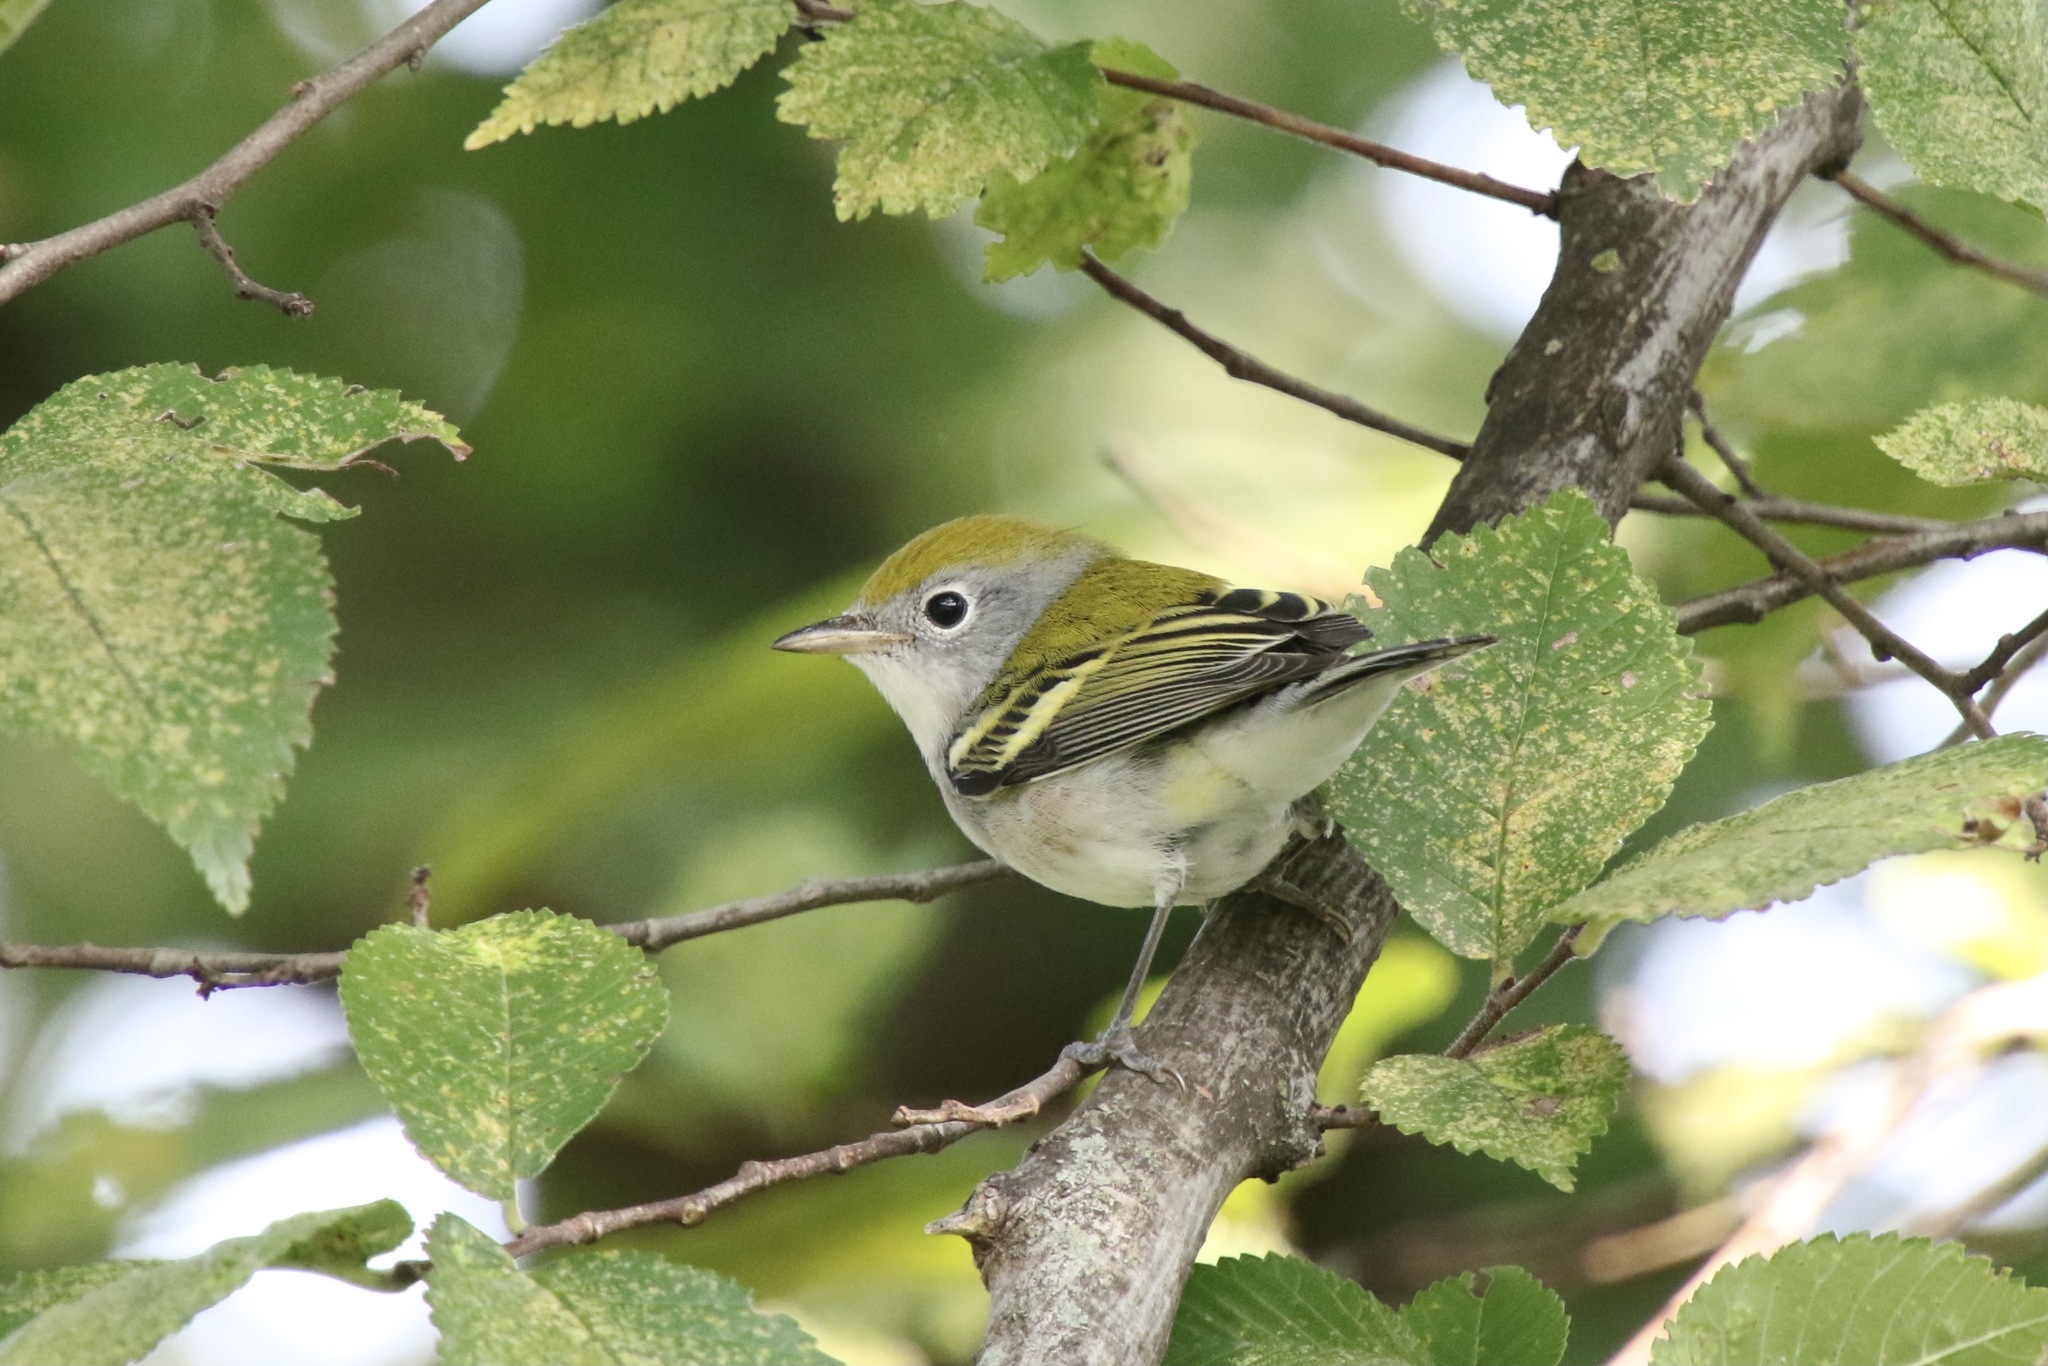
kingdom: Animalia
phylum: Chordata
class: Aves
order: Passeriformes
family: Parulidae
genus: Setophaga
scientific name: Setophaga pensylvanica
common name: Chestnut-sided warbler
